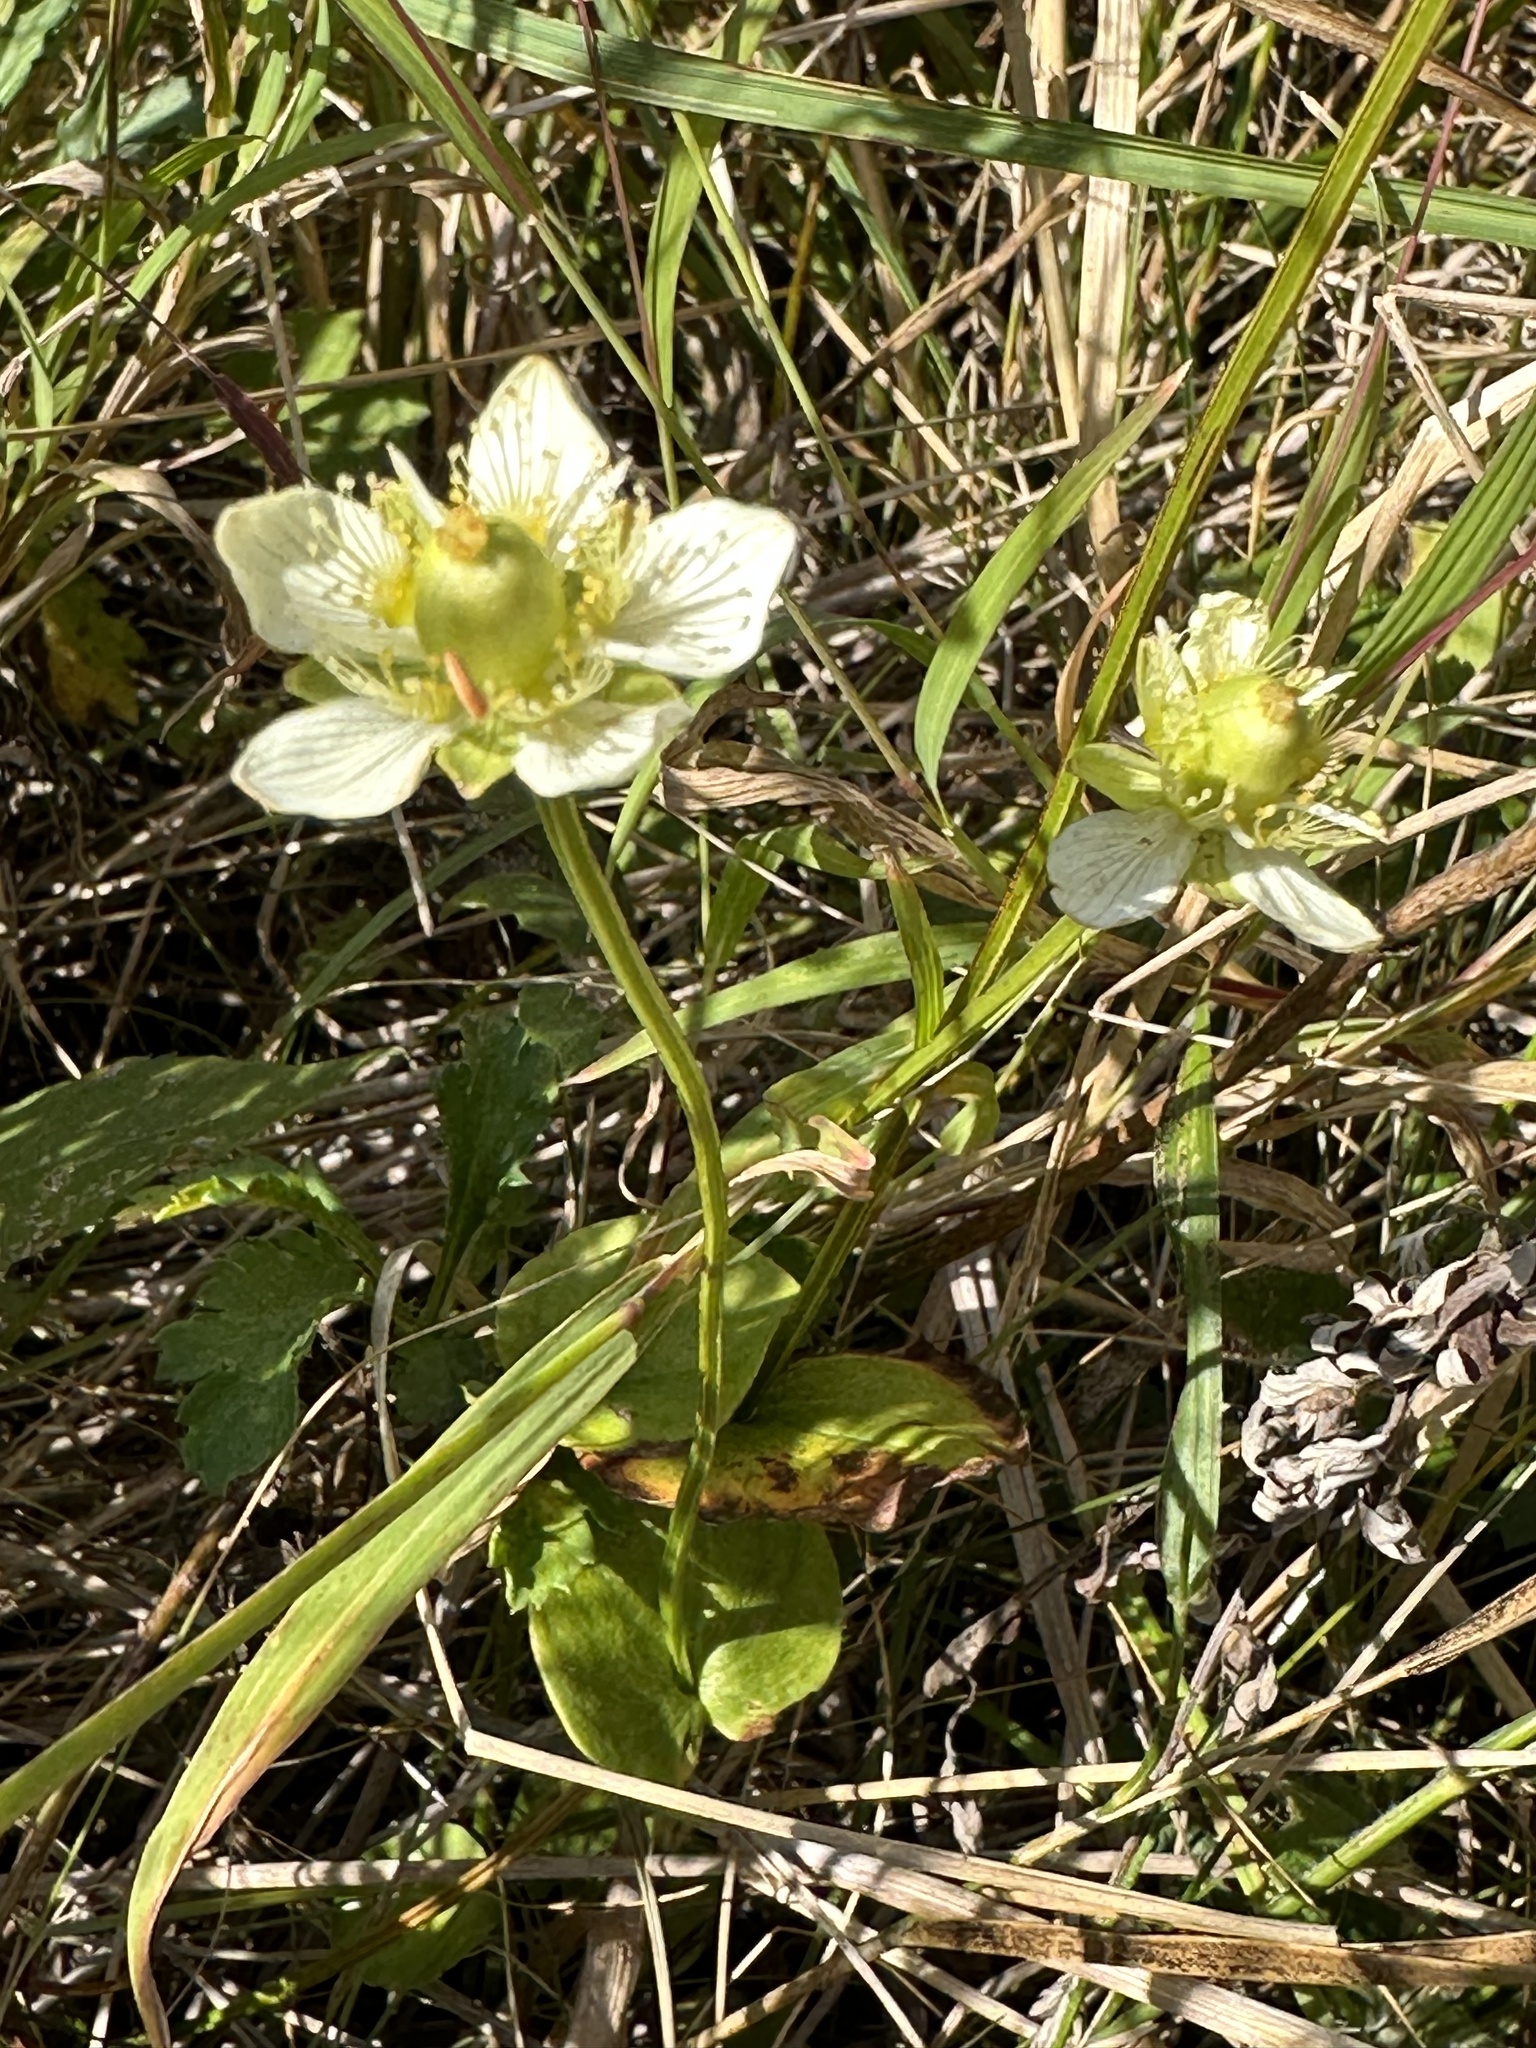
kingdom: Plantae
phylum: Tracheophyta
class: Magnoliopsida
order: Celastrales
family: Parnassiaceae
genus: Parnassia
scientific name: Parnassia palustris
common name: Grass-of-parnassus
